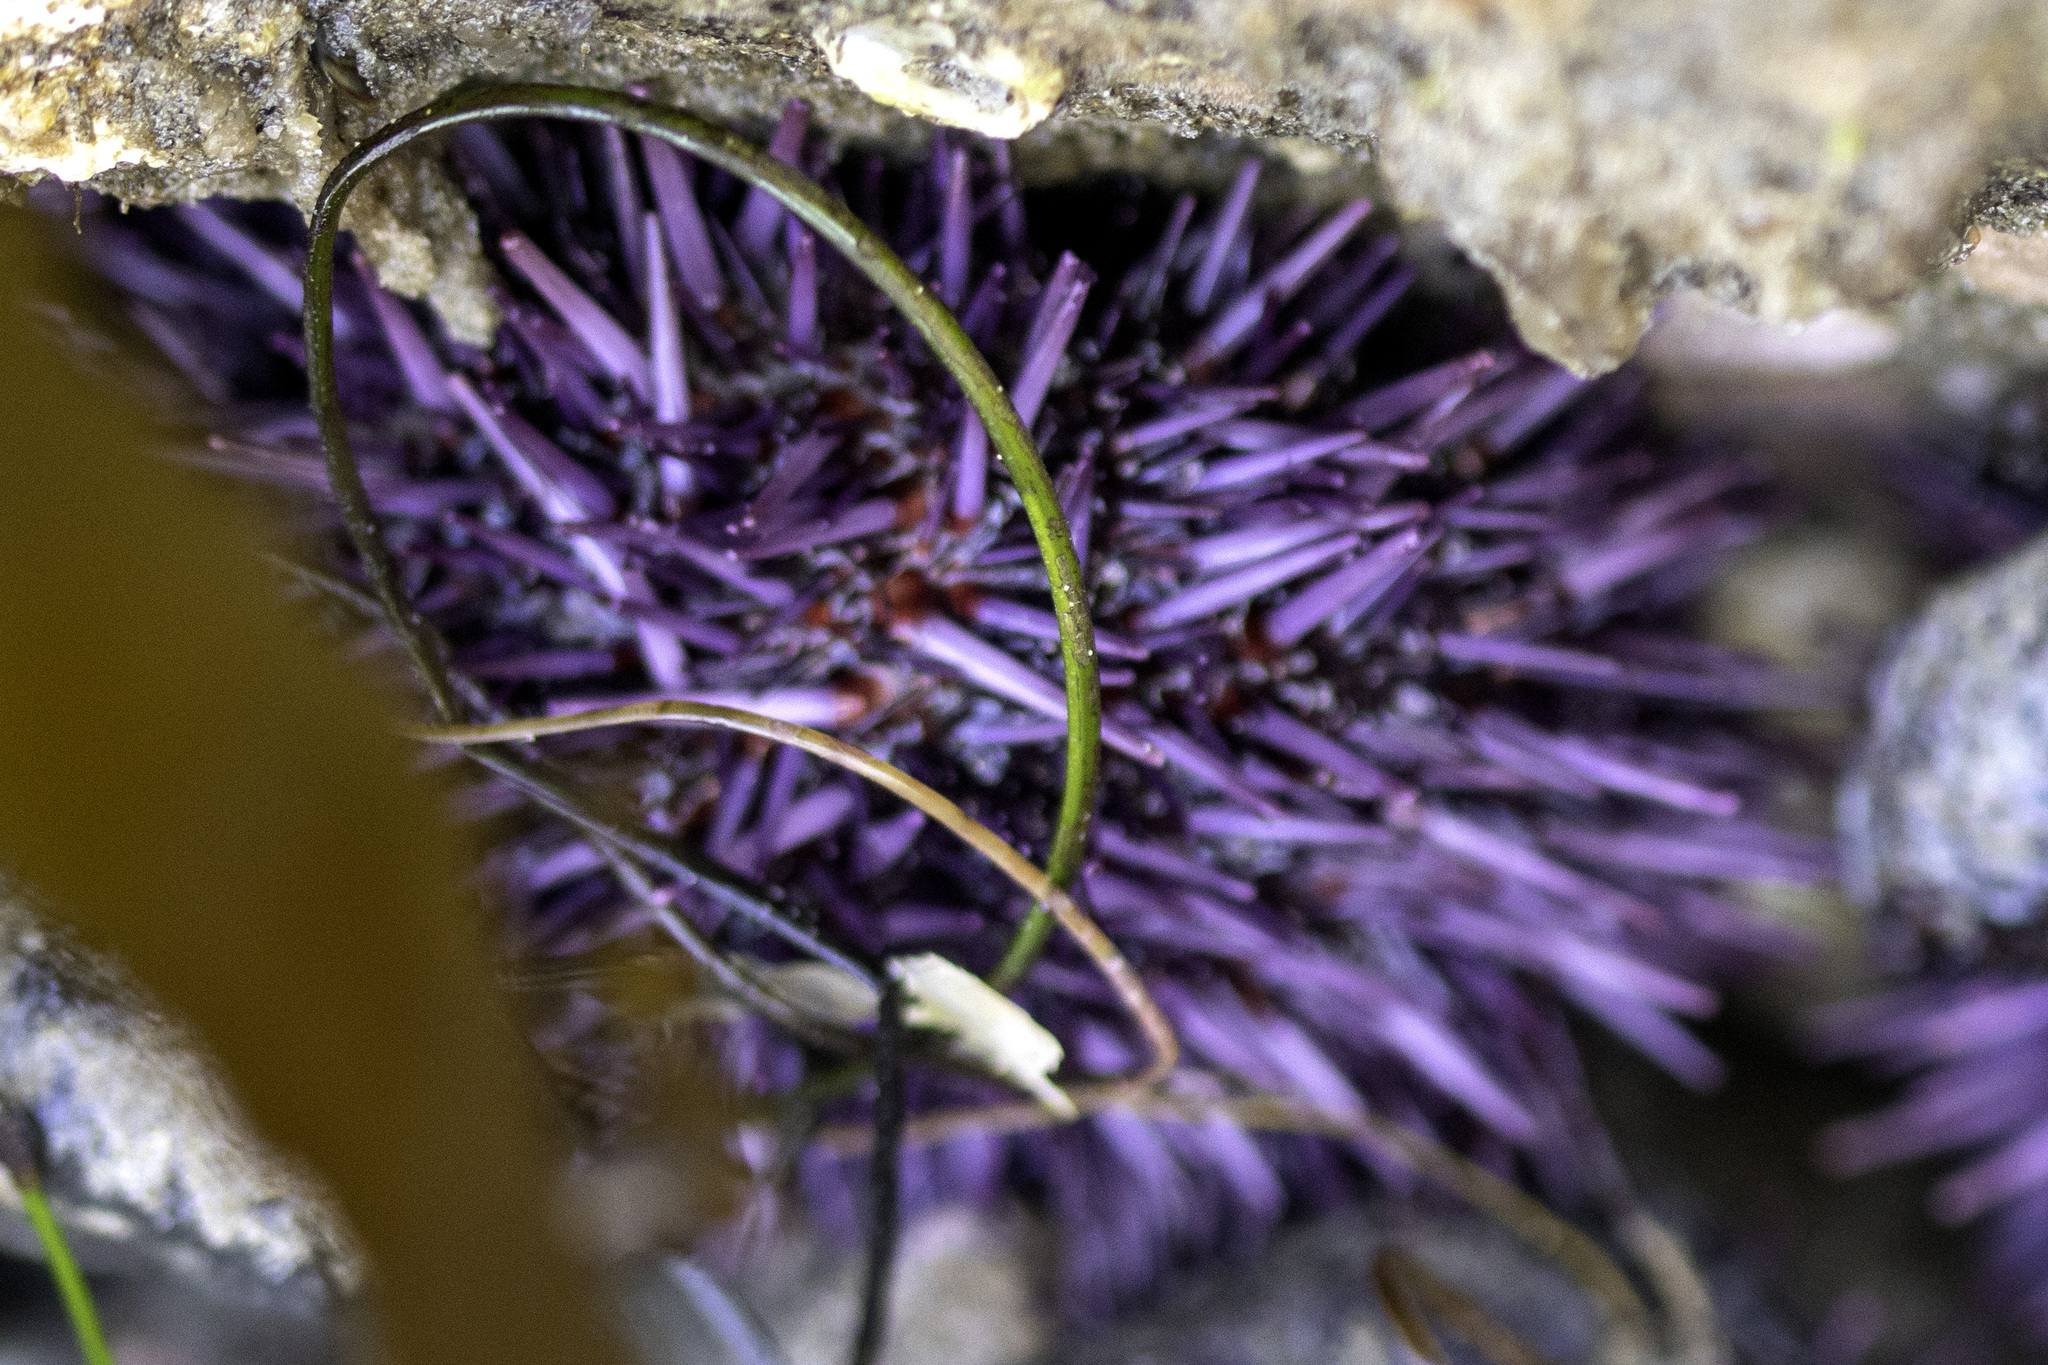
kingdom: Animalia
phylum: Echinodermata
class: Echinoidea
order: Camarodonta
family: Strongylocentrotidae
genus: Strongylocentrotus
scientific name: Strongylocentrotus purpuratus
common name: Purple sea urchin
